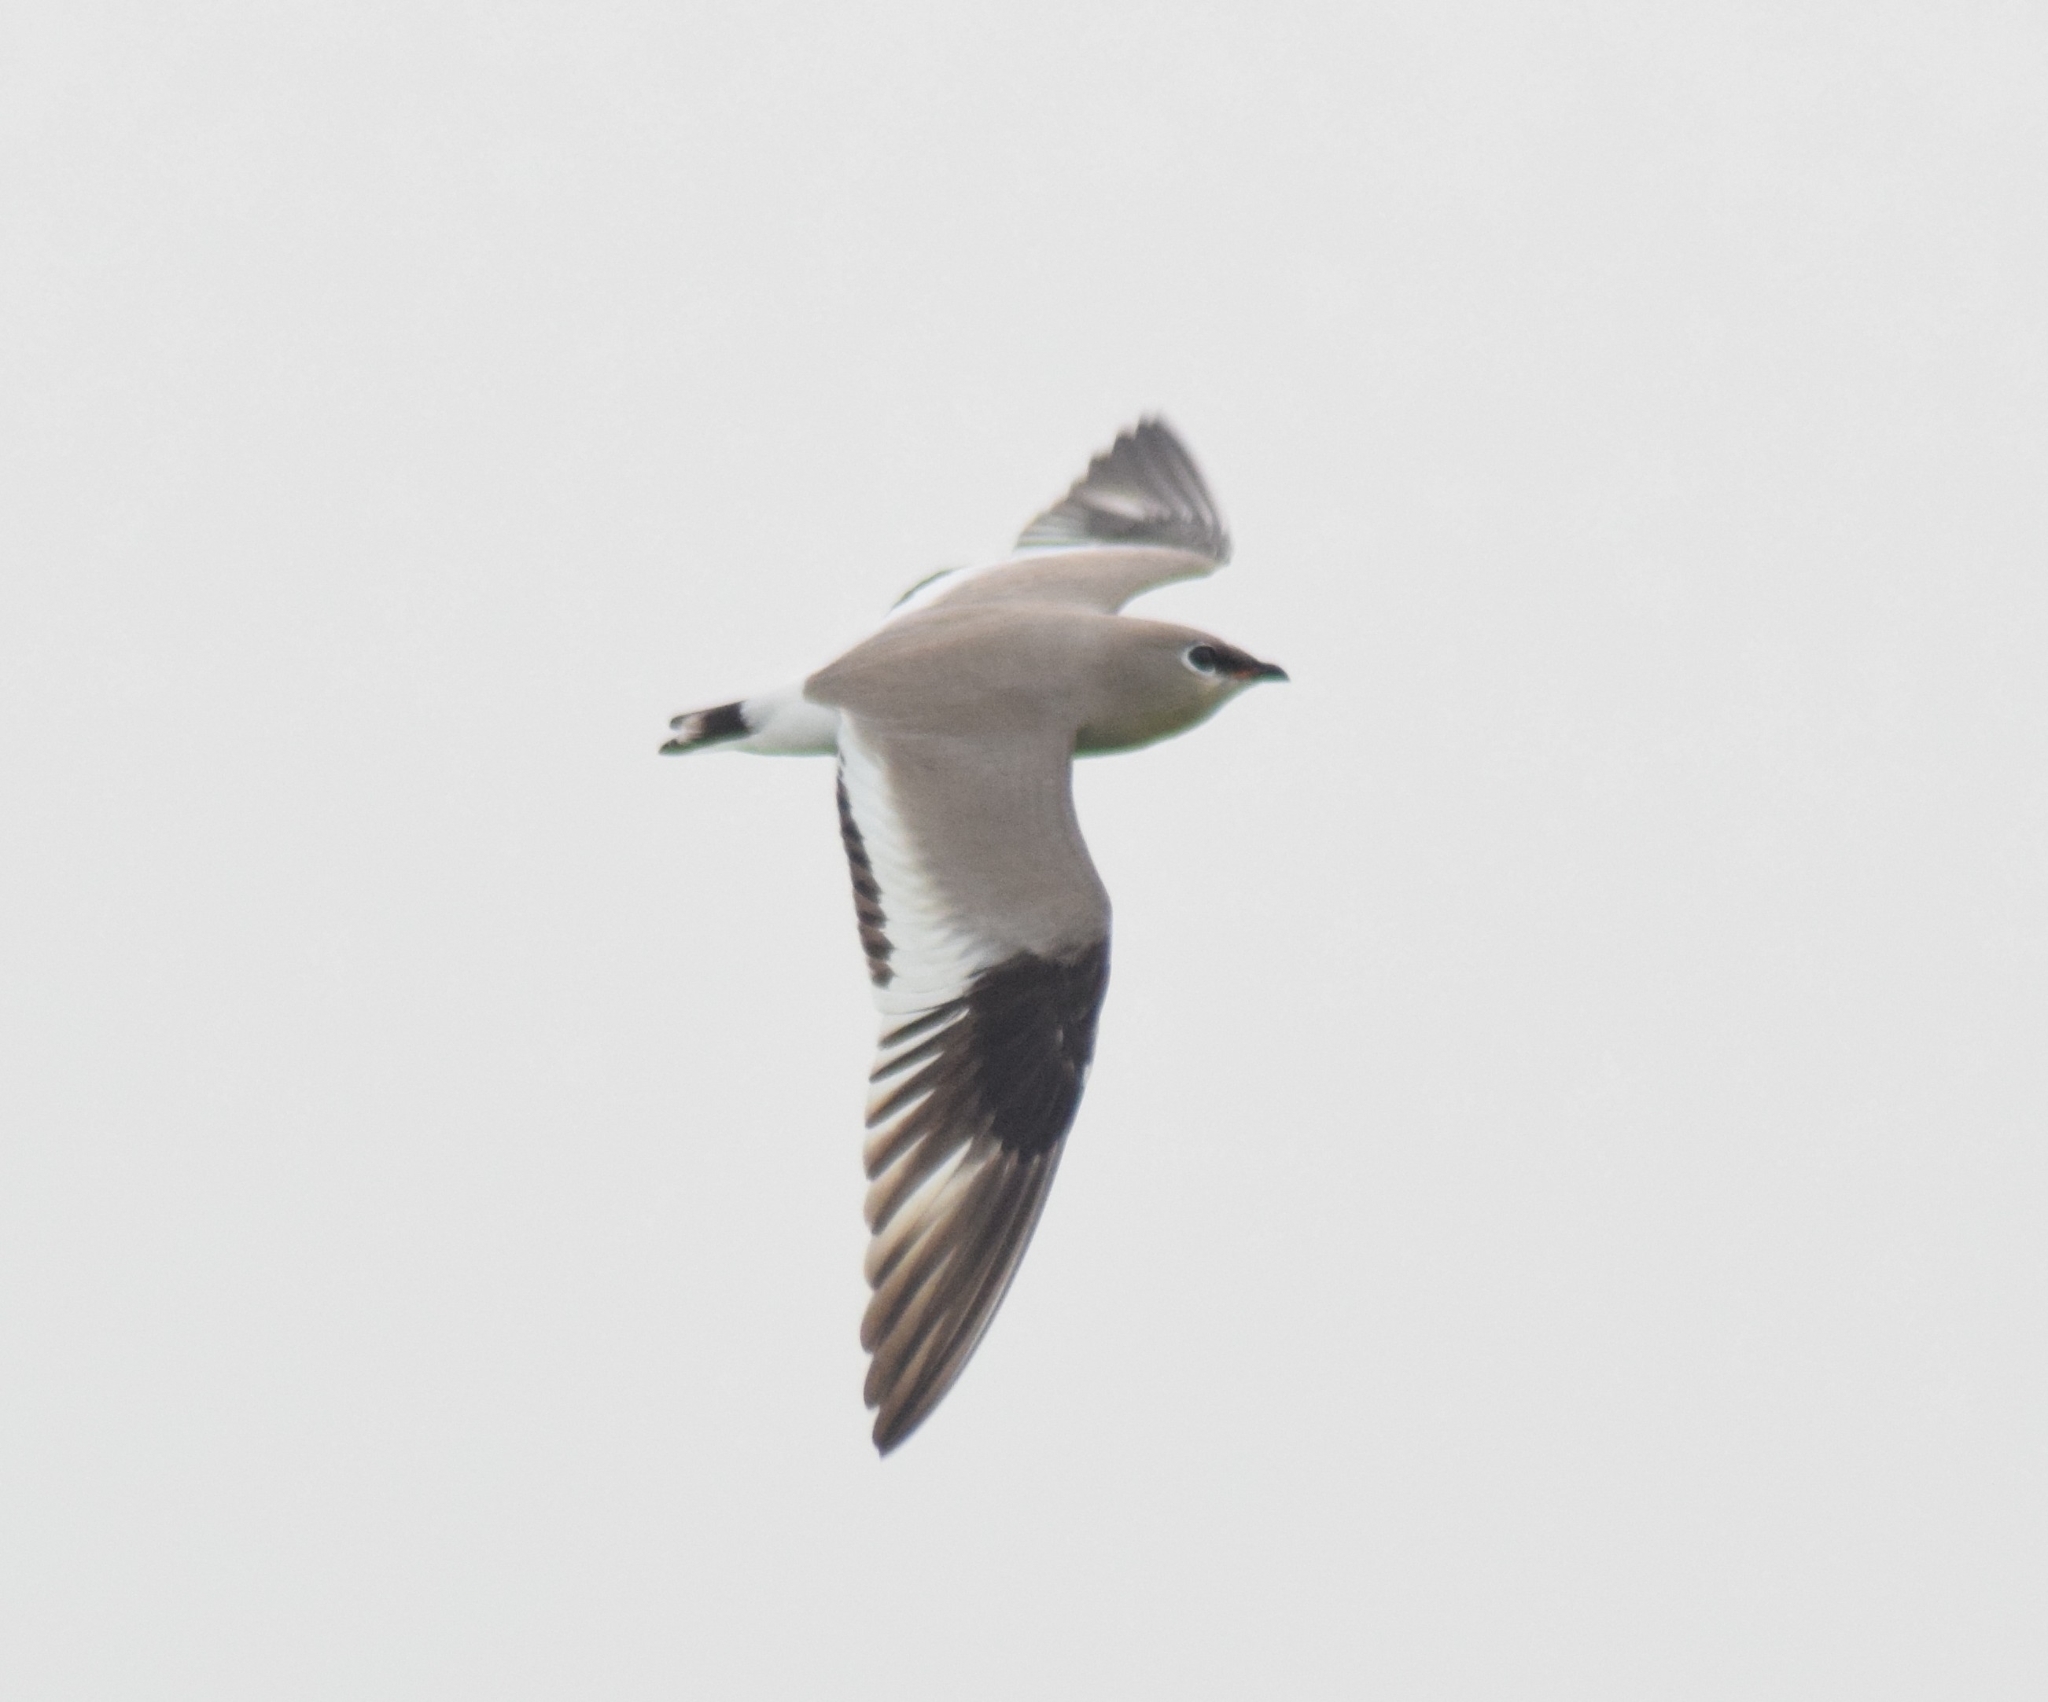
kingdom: Animalia
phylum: Chordata
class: Aves
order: Charadriiformes
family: Glareolidae
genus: Glareola
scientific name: Glareola lactea
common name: Small pratincole
